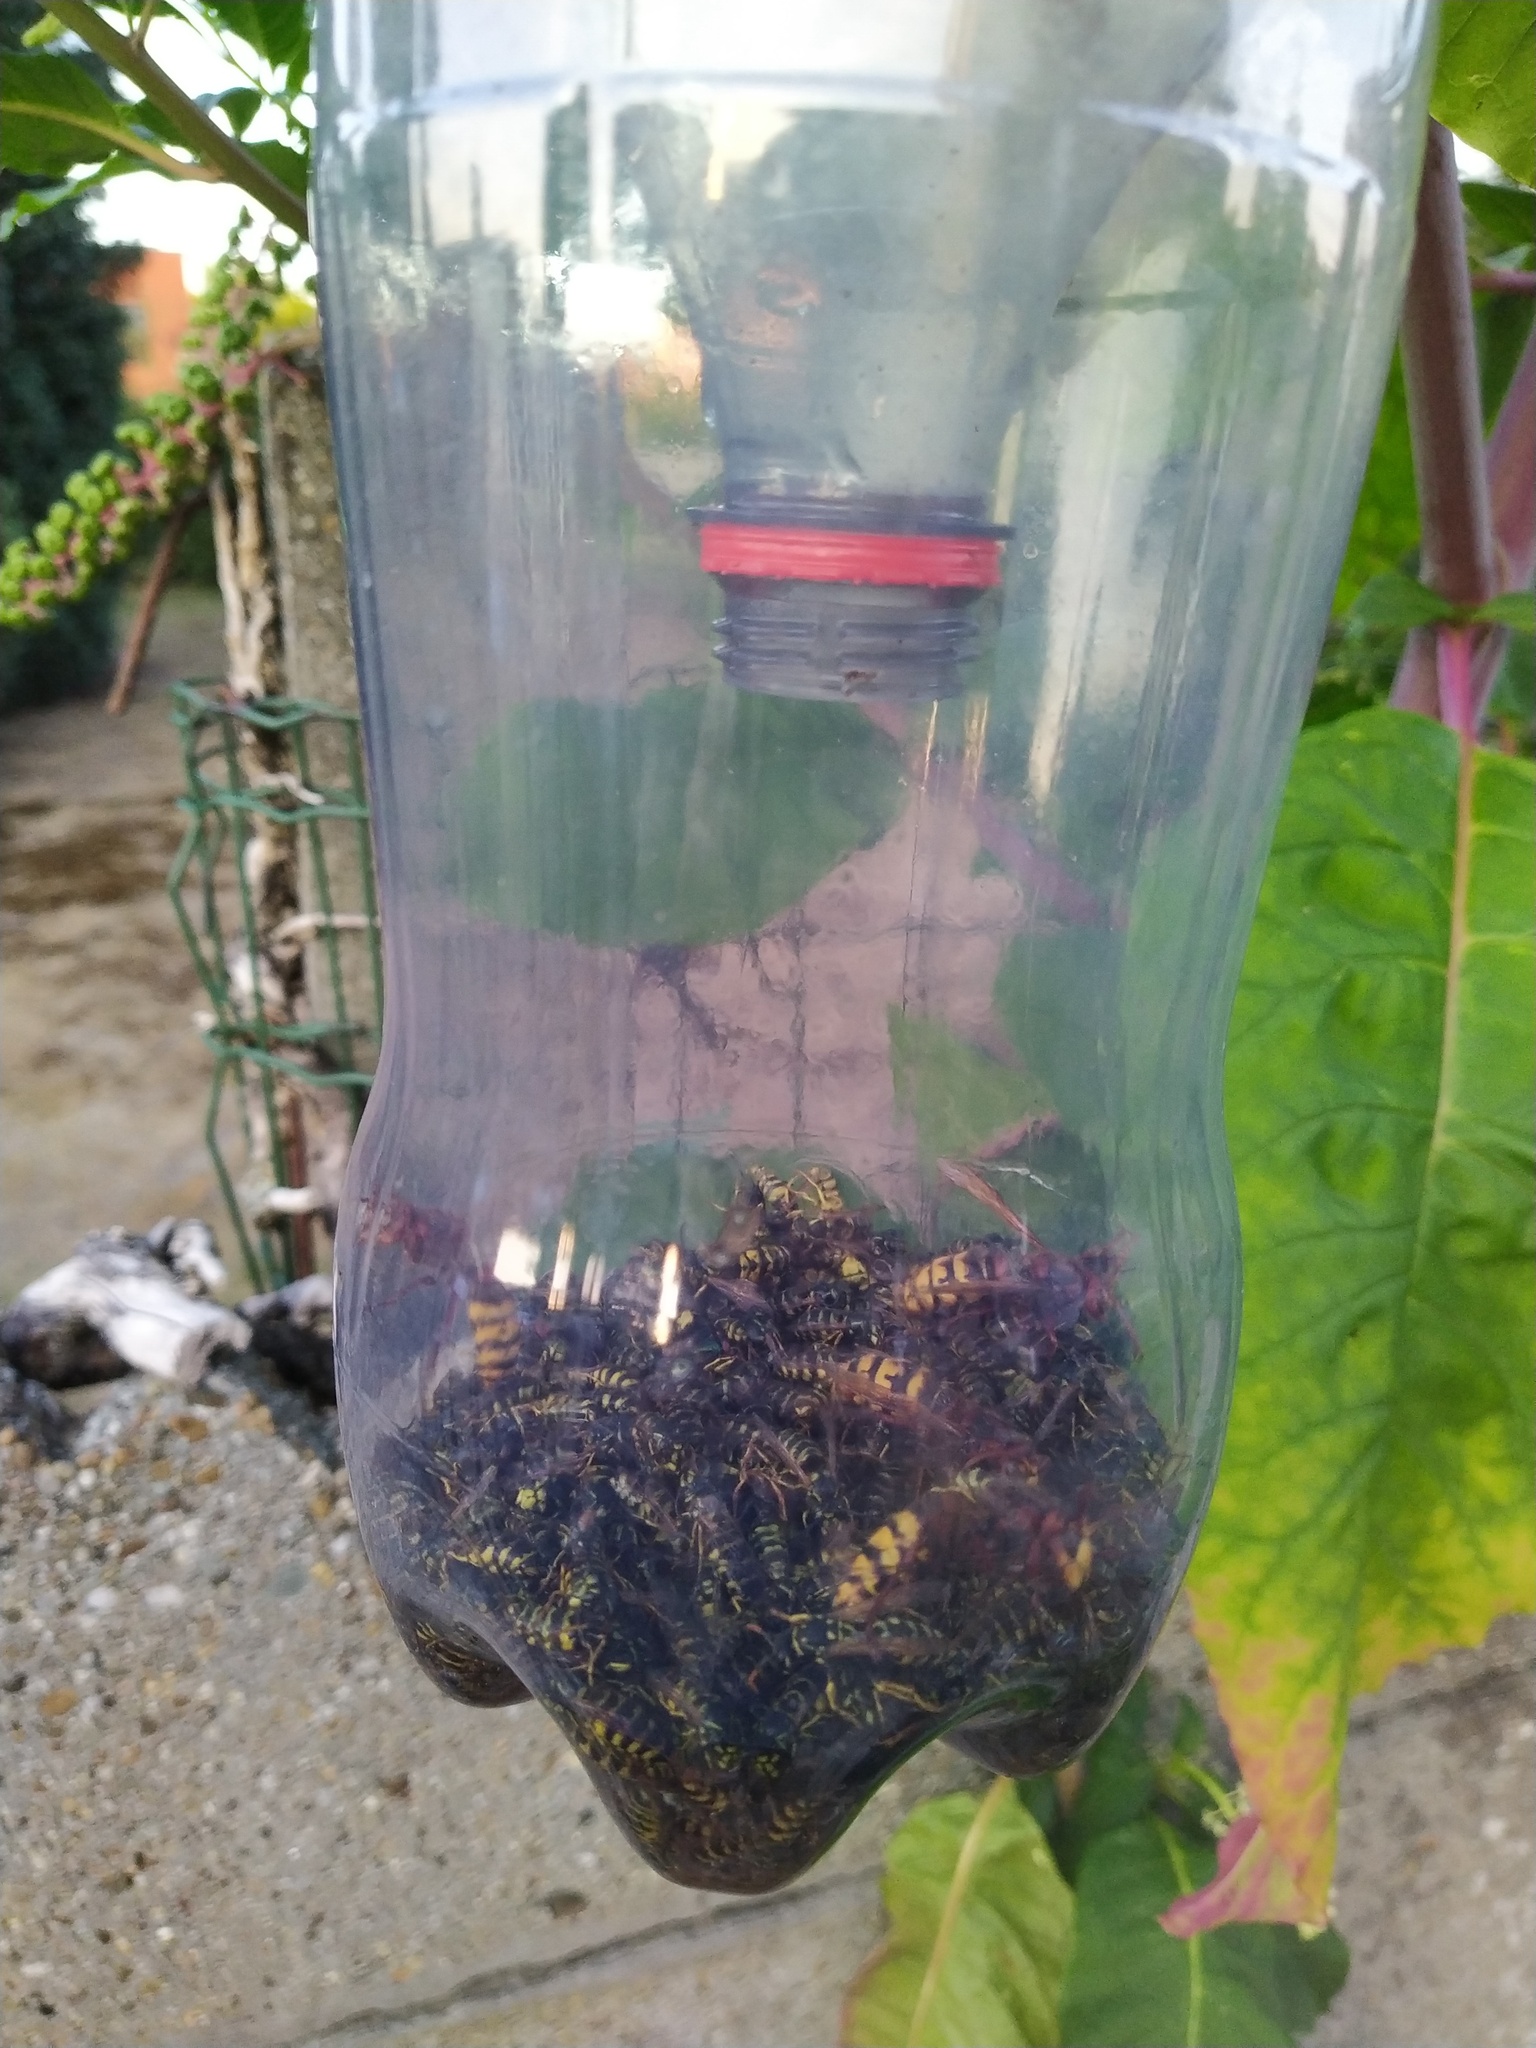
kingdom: Animalia
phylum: Arthropoda
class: Insecta
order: Hymenoptera
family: Vespidae
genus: Vespa
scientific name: Vespa crabro
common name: Hornet
